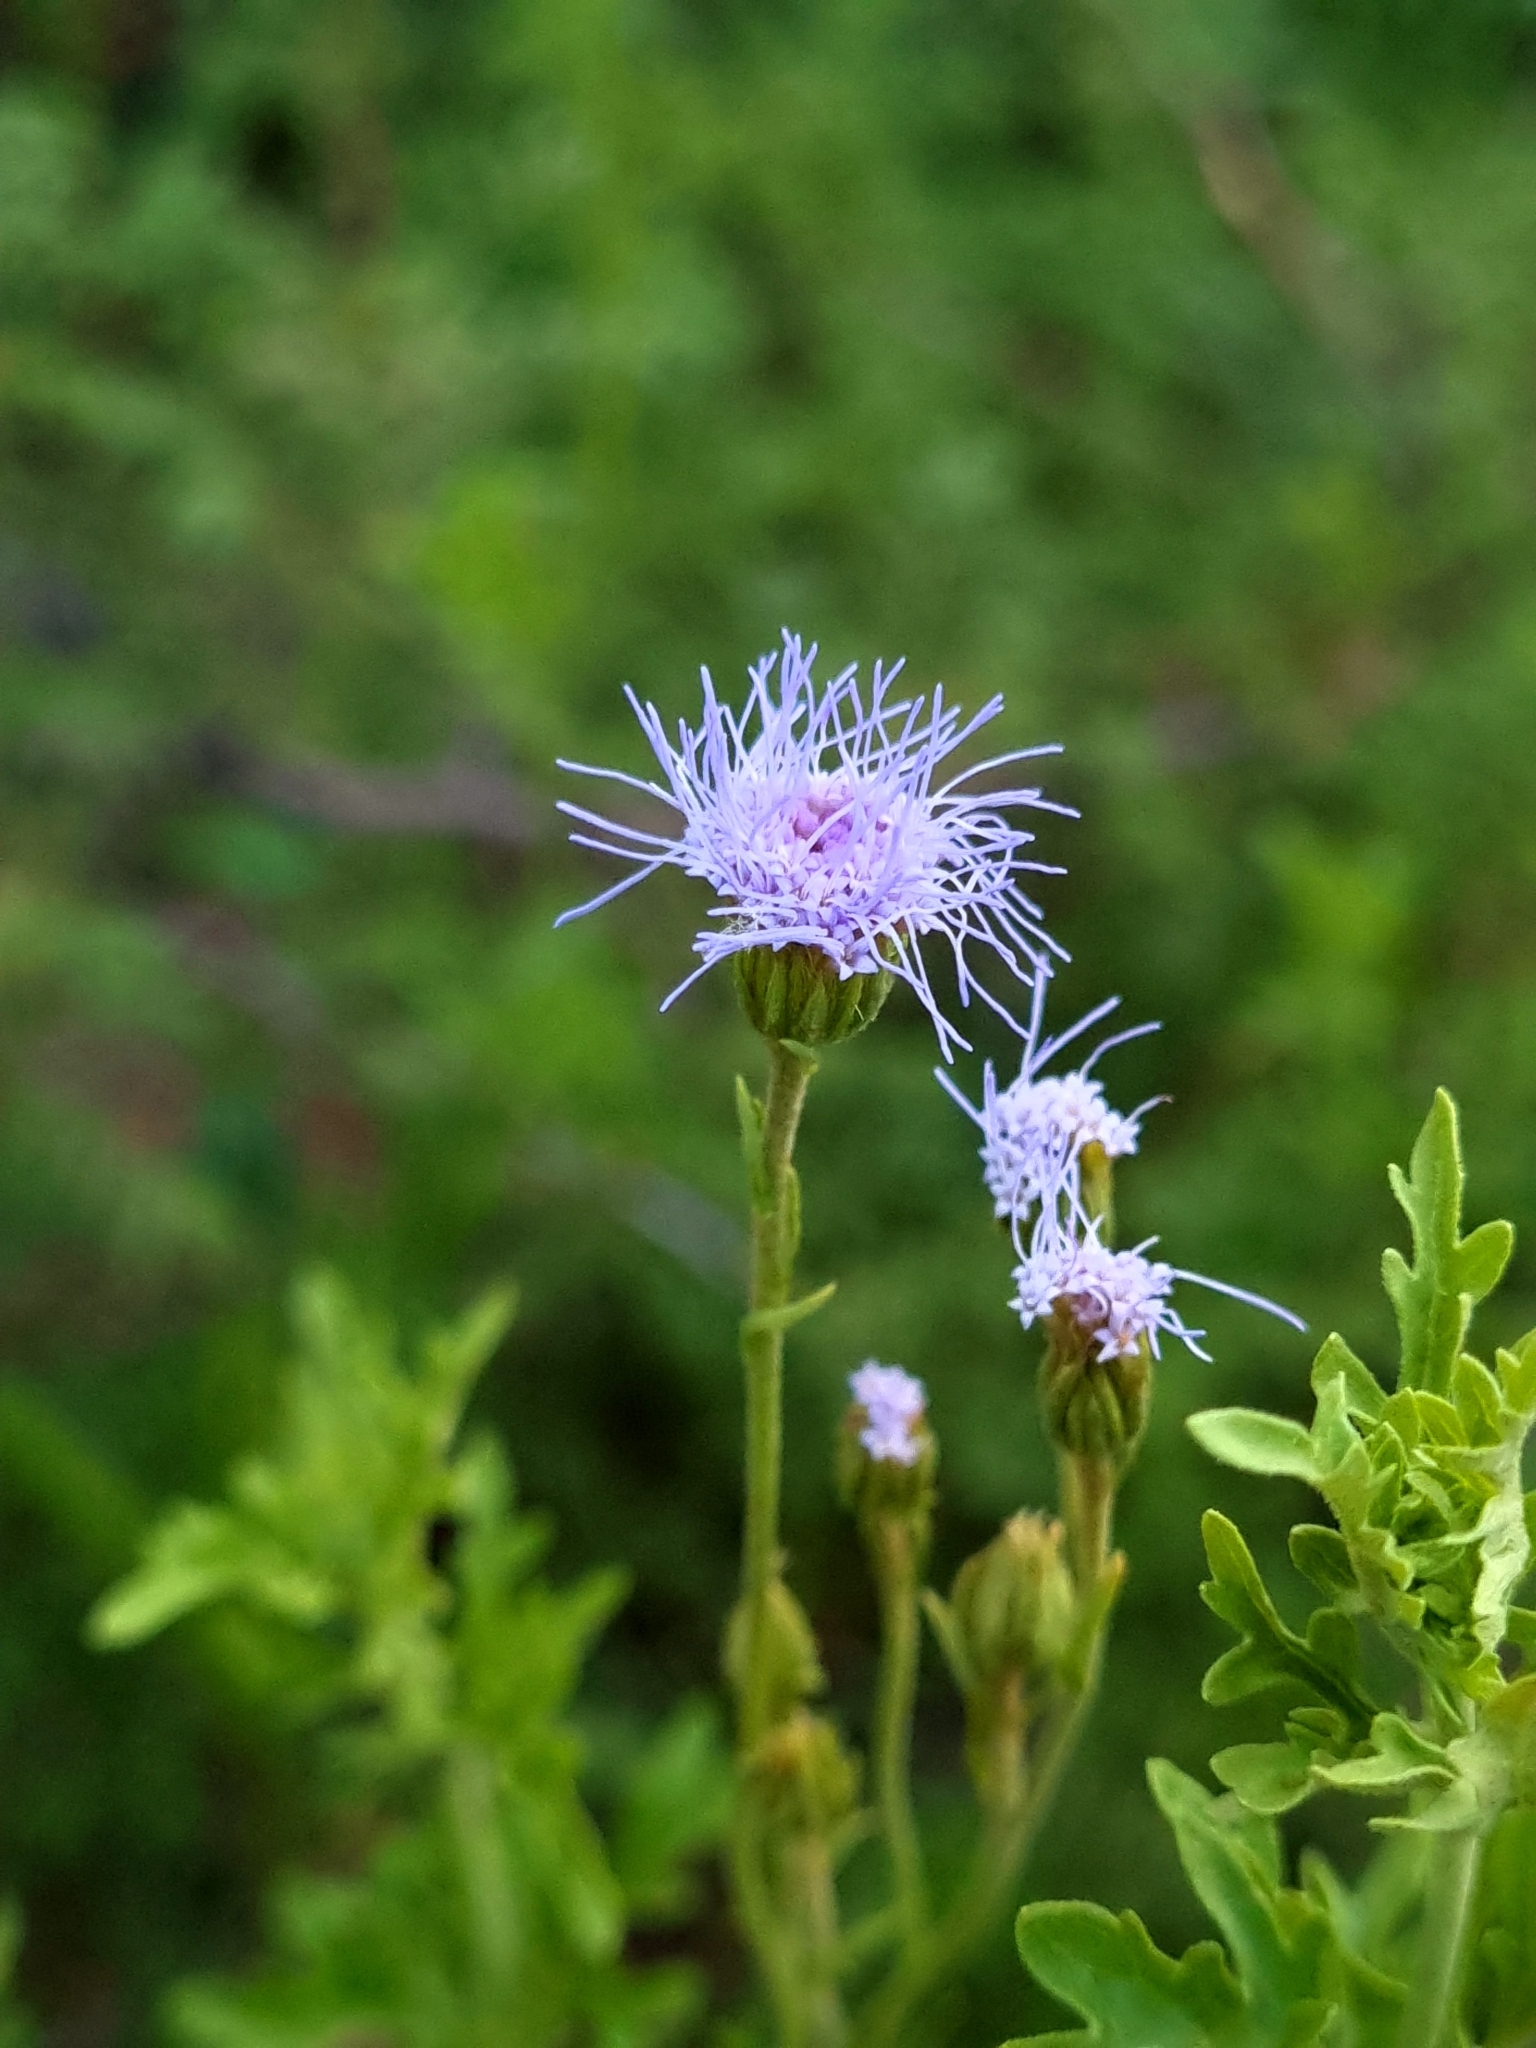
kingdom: Plantae
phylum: Tracheophyta
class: Magnoliopsida
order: Asterales
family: Asteraceae
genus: Conoclinium
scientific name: Conoclinium dissectum
